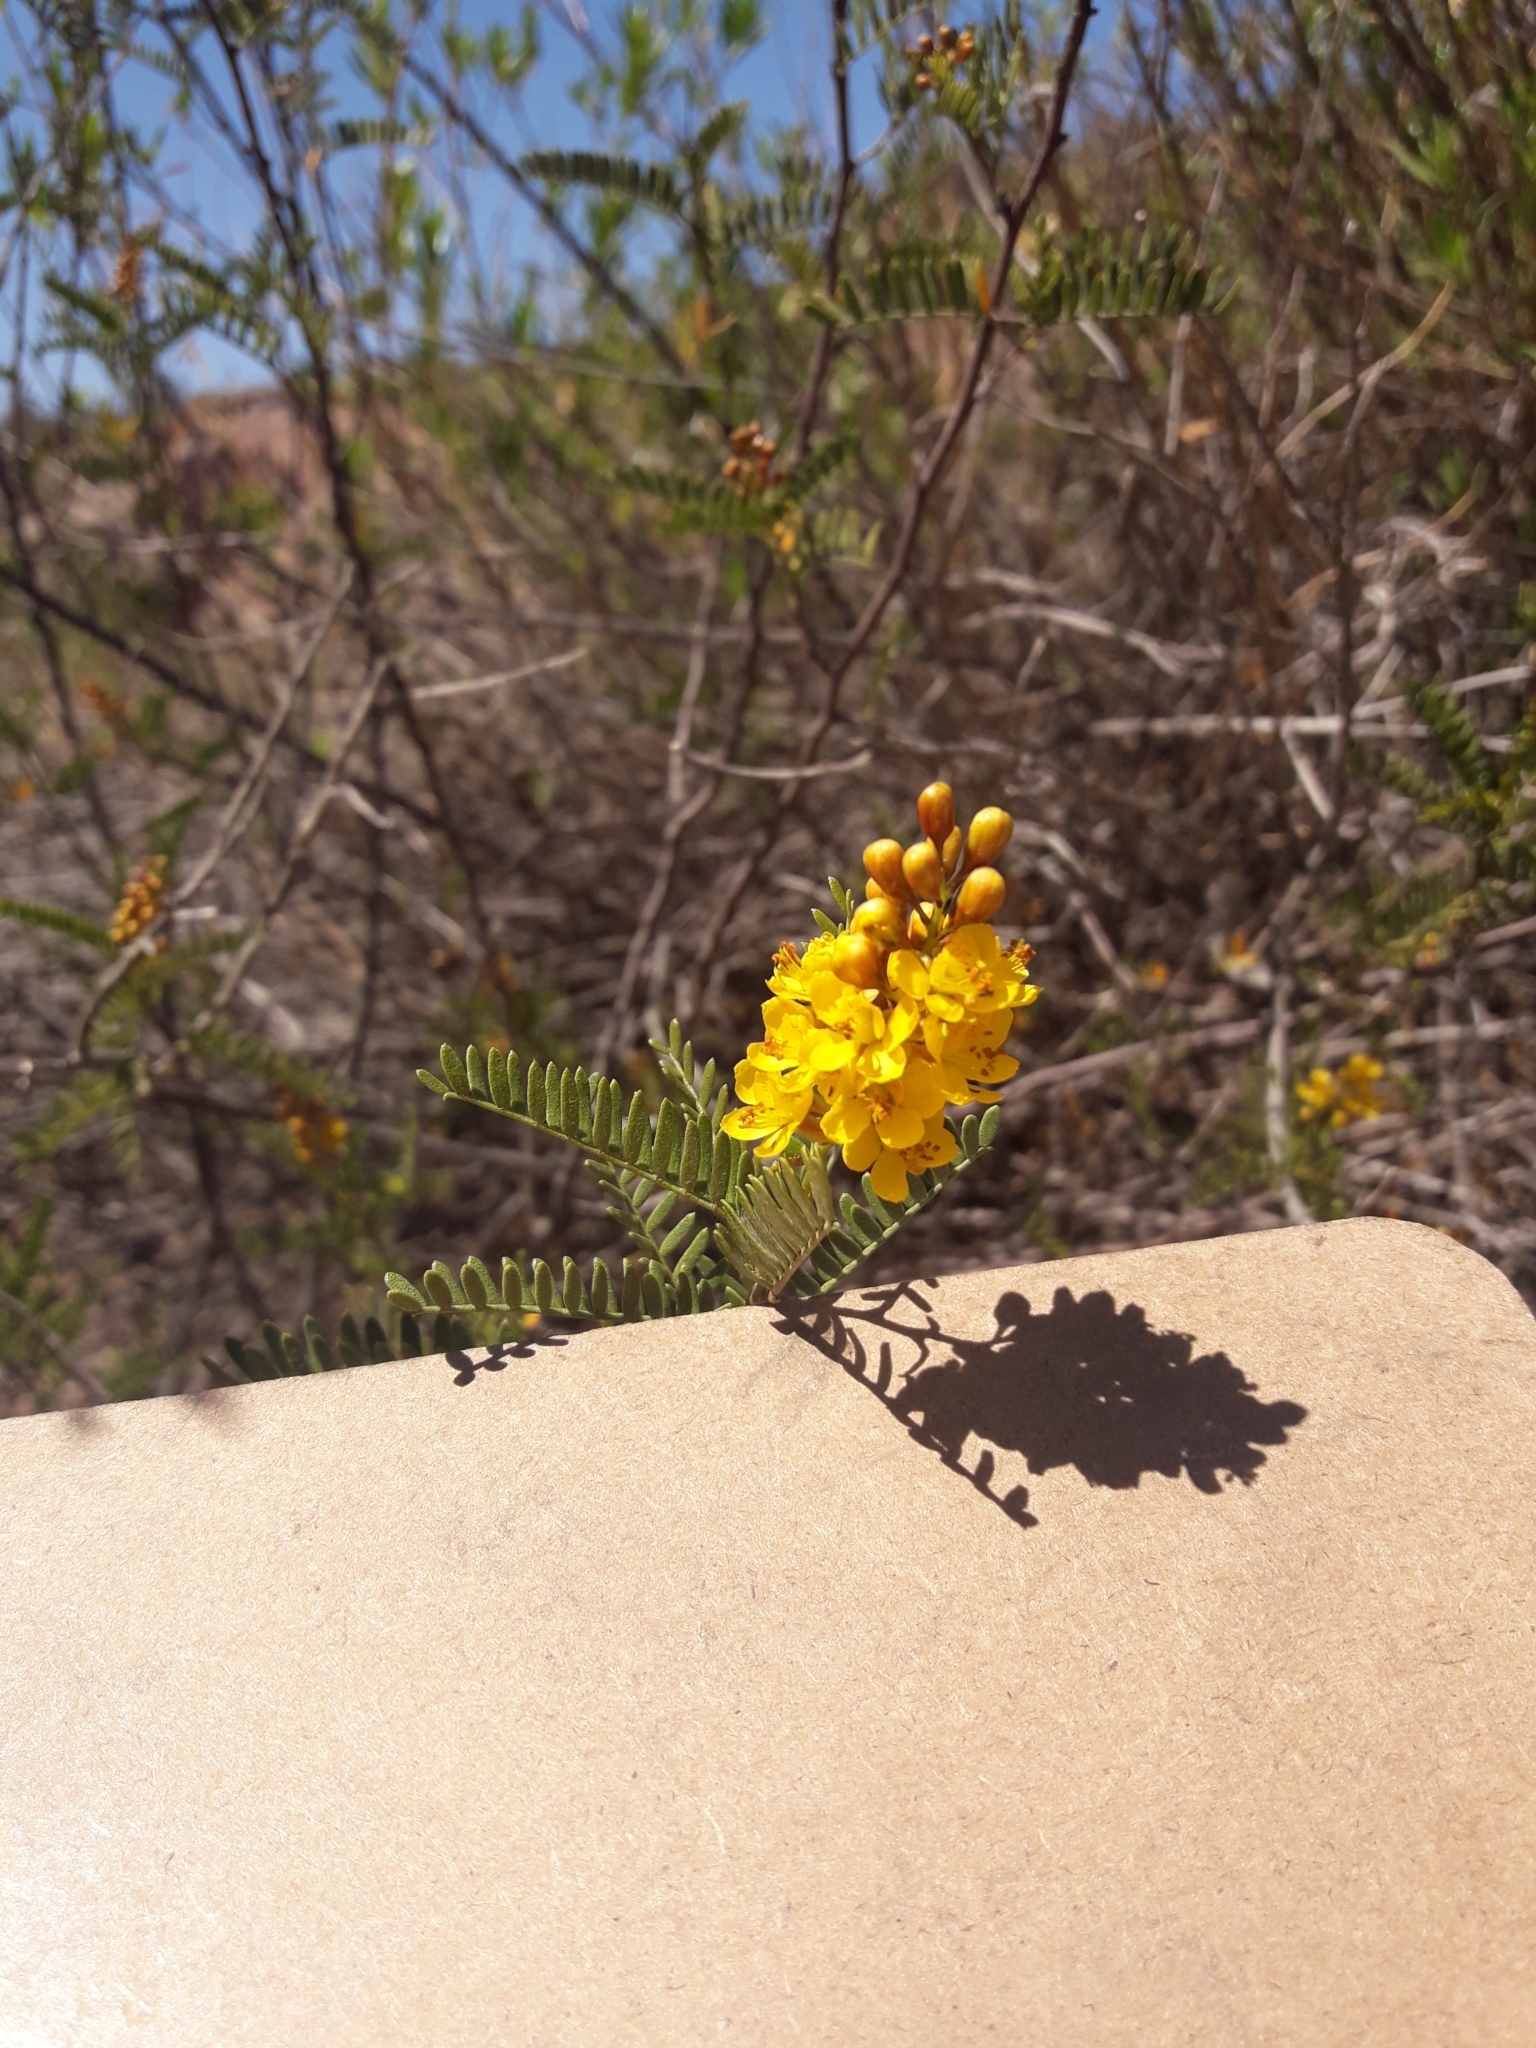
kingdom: Plantae
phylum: Tracheophyta
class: Magnoliopsida
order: Fabales
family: Fabaceae
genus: Zuccagnia
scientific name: Zuccagnia punctata
